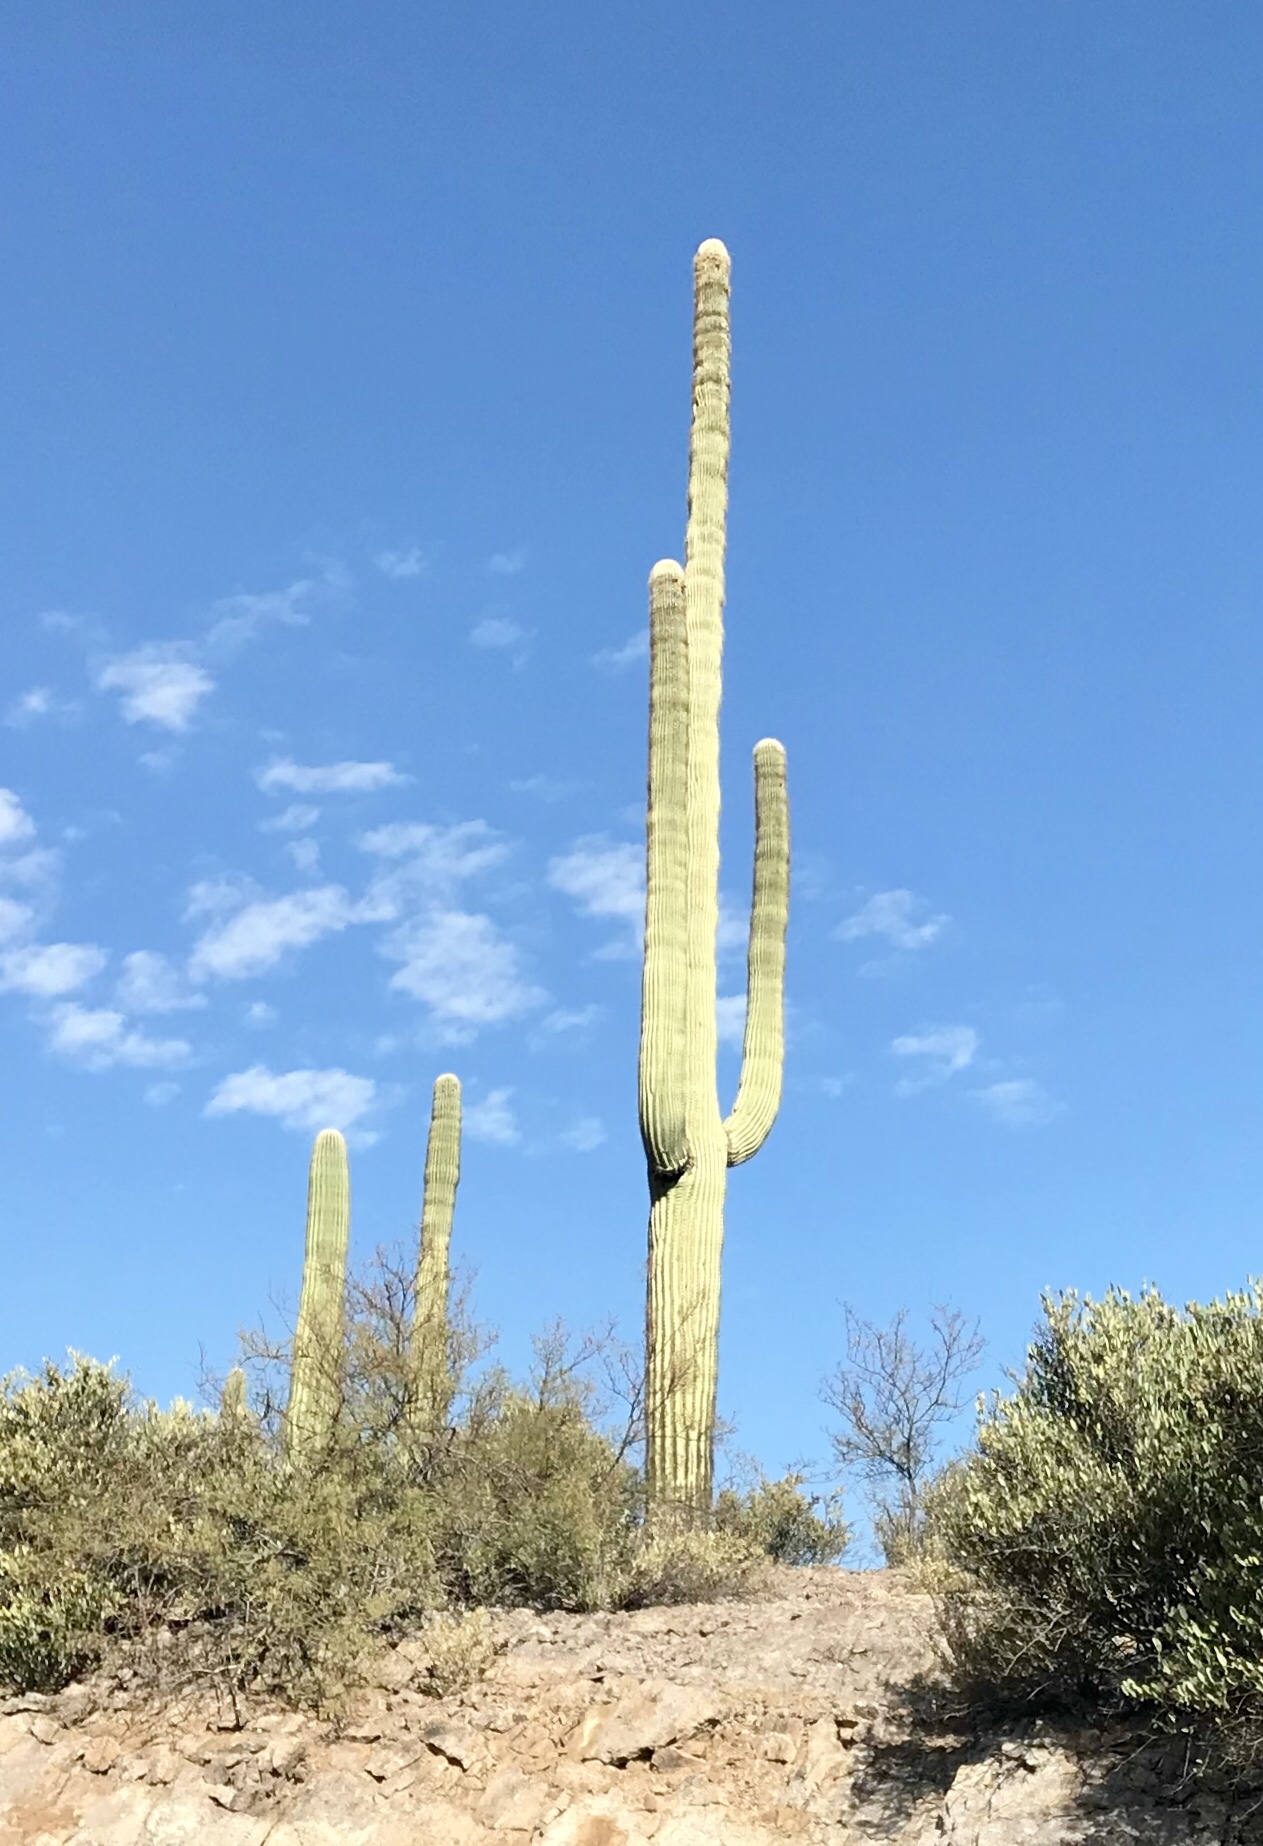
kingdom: Plantae
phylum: Tracheophyta
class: Magnoliopsida
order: Caryophyllales
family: Cactaceae
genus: Carnegiea
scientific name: Carnegiea gigantea
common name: Saguaro
